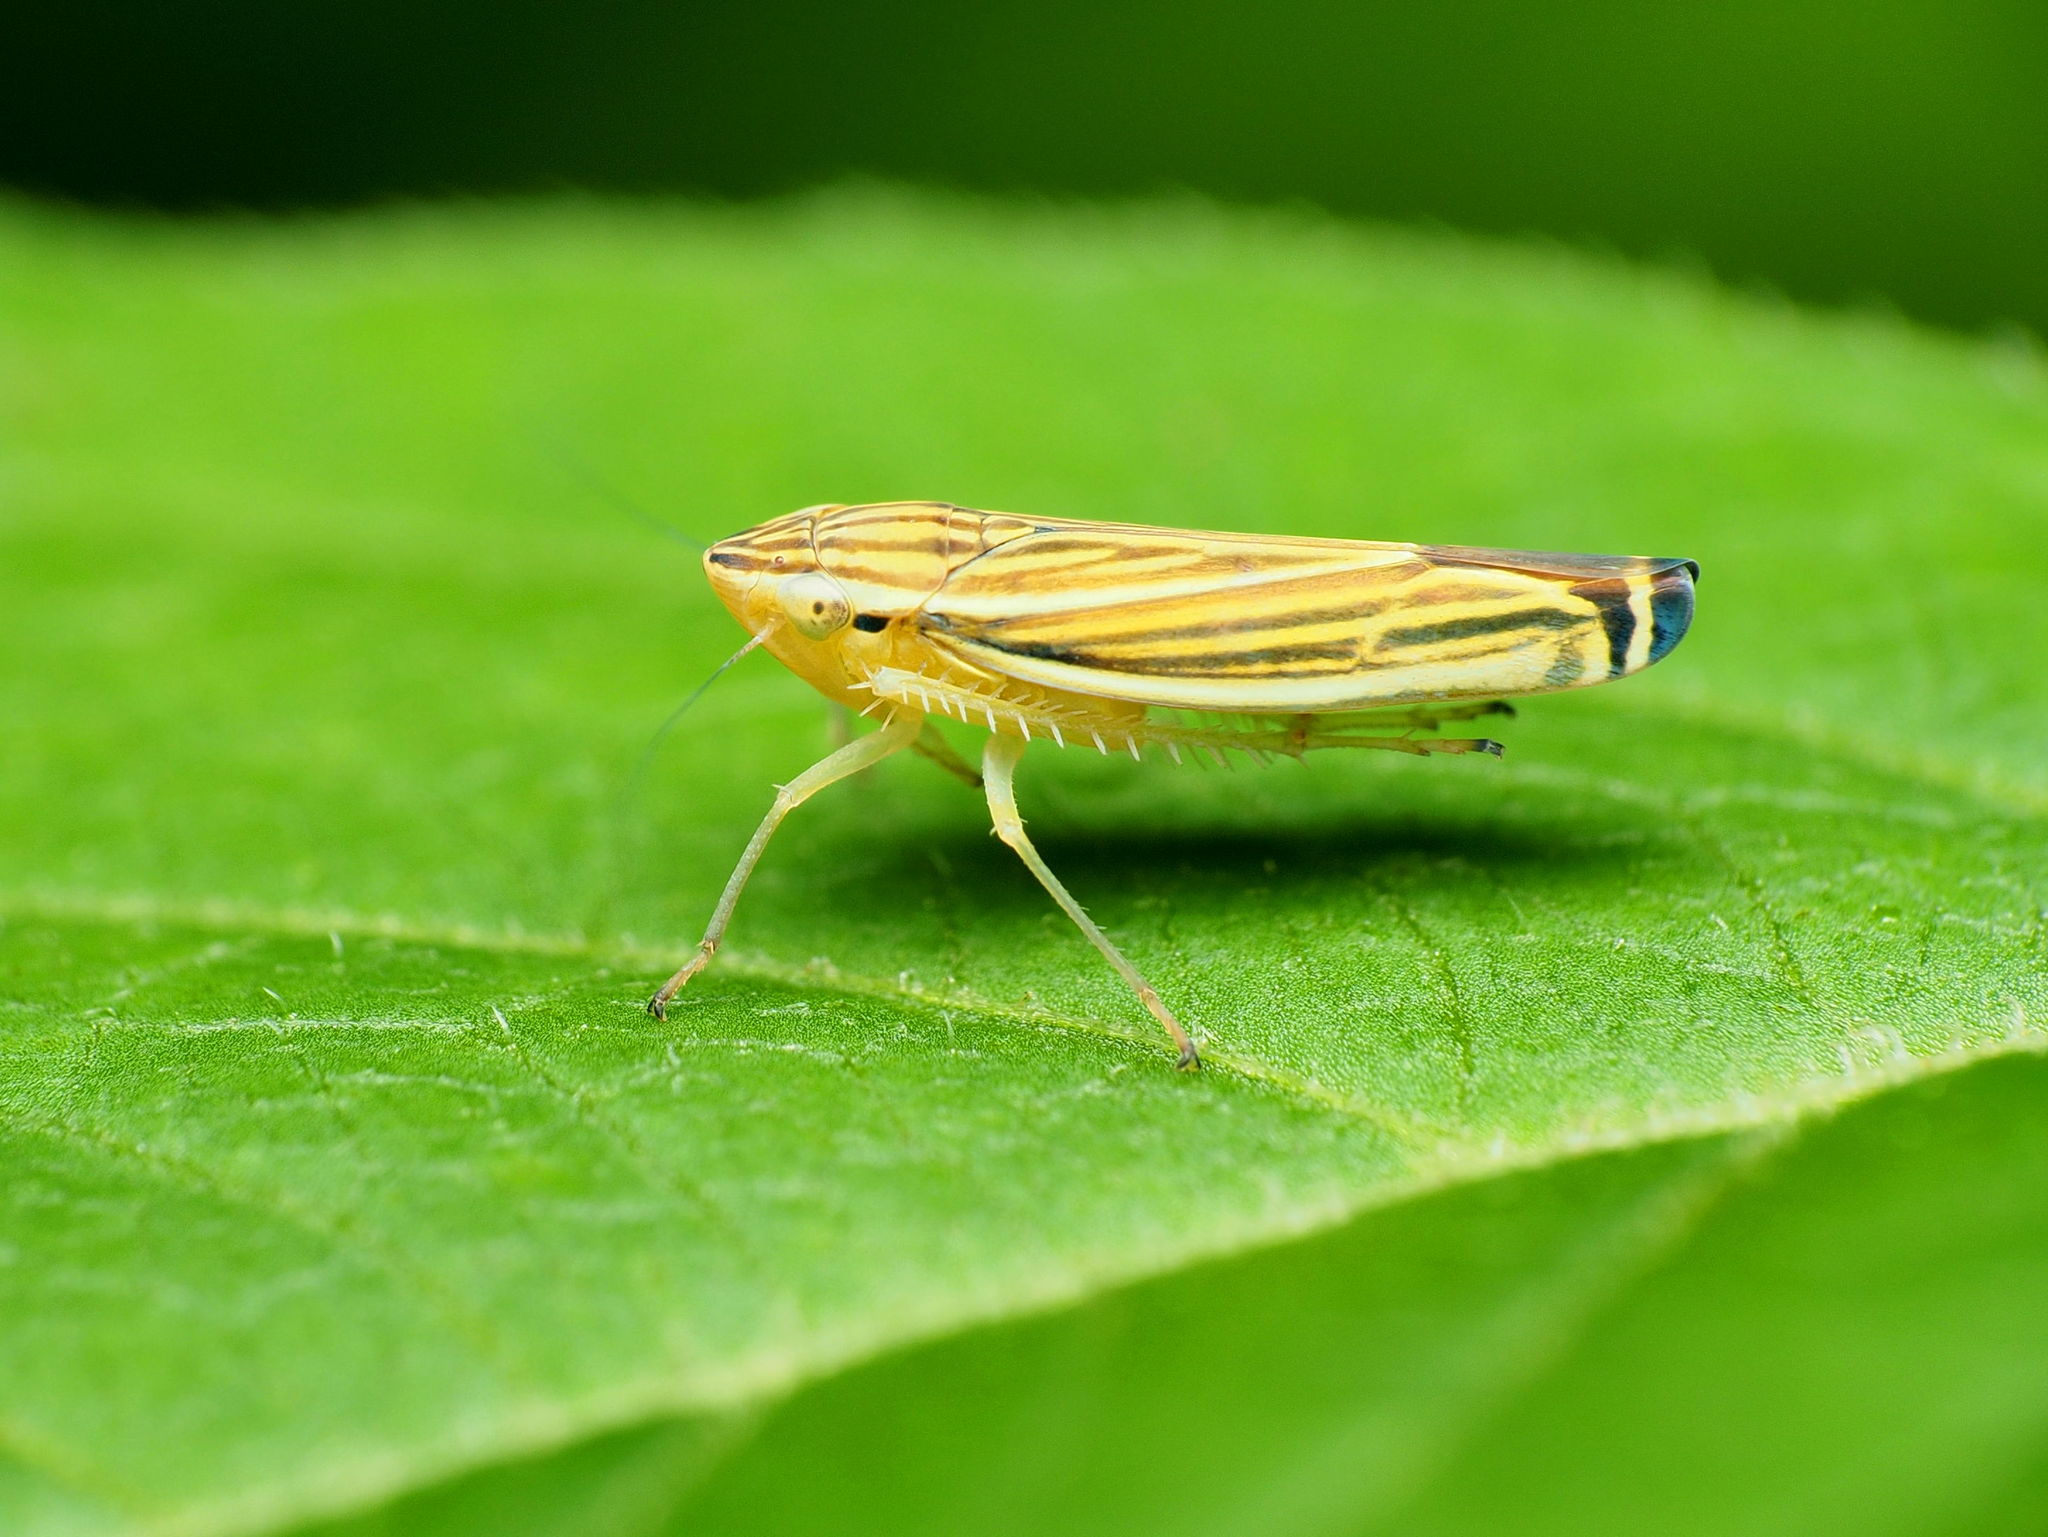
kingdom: Animalia
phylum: Arthropoda
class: Insecta
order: Hemiptera
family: Cicadellidae
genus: Sibovia
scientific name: Sibovia occatoria
